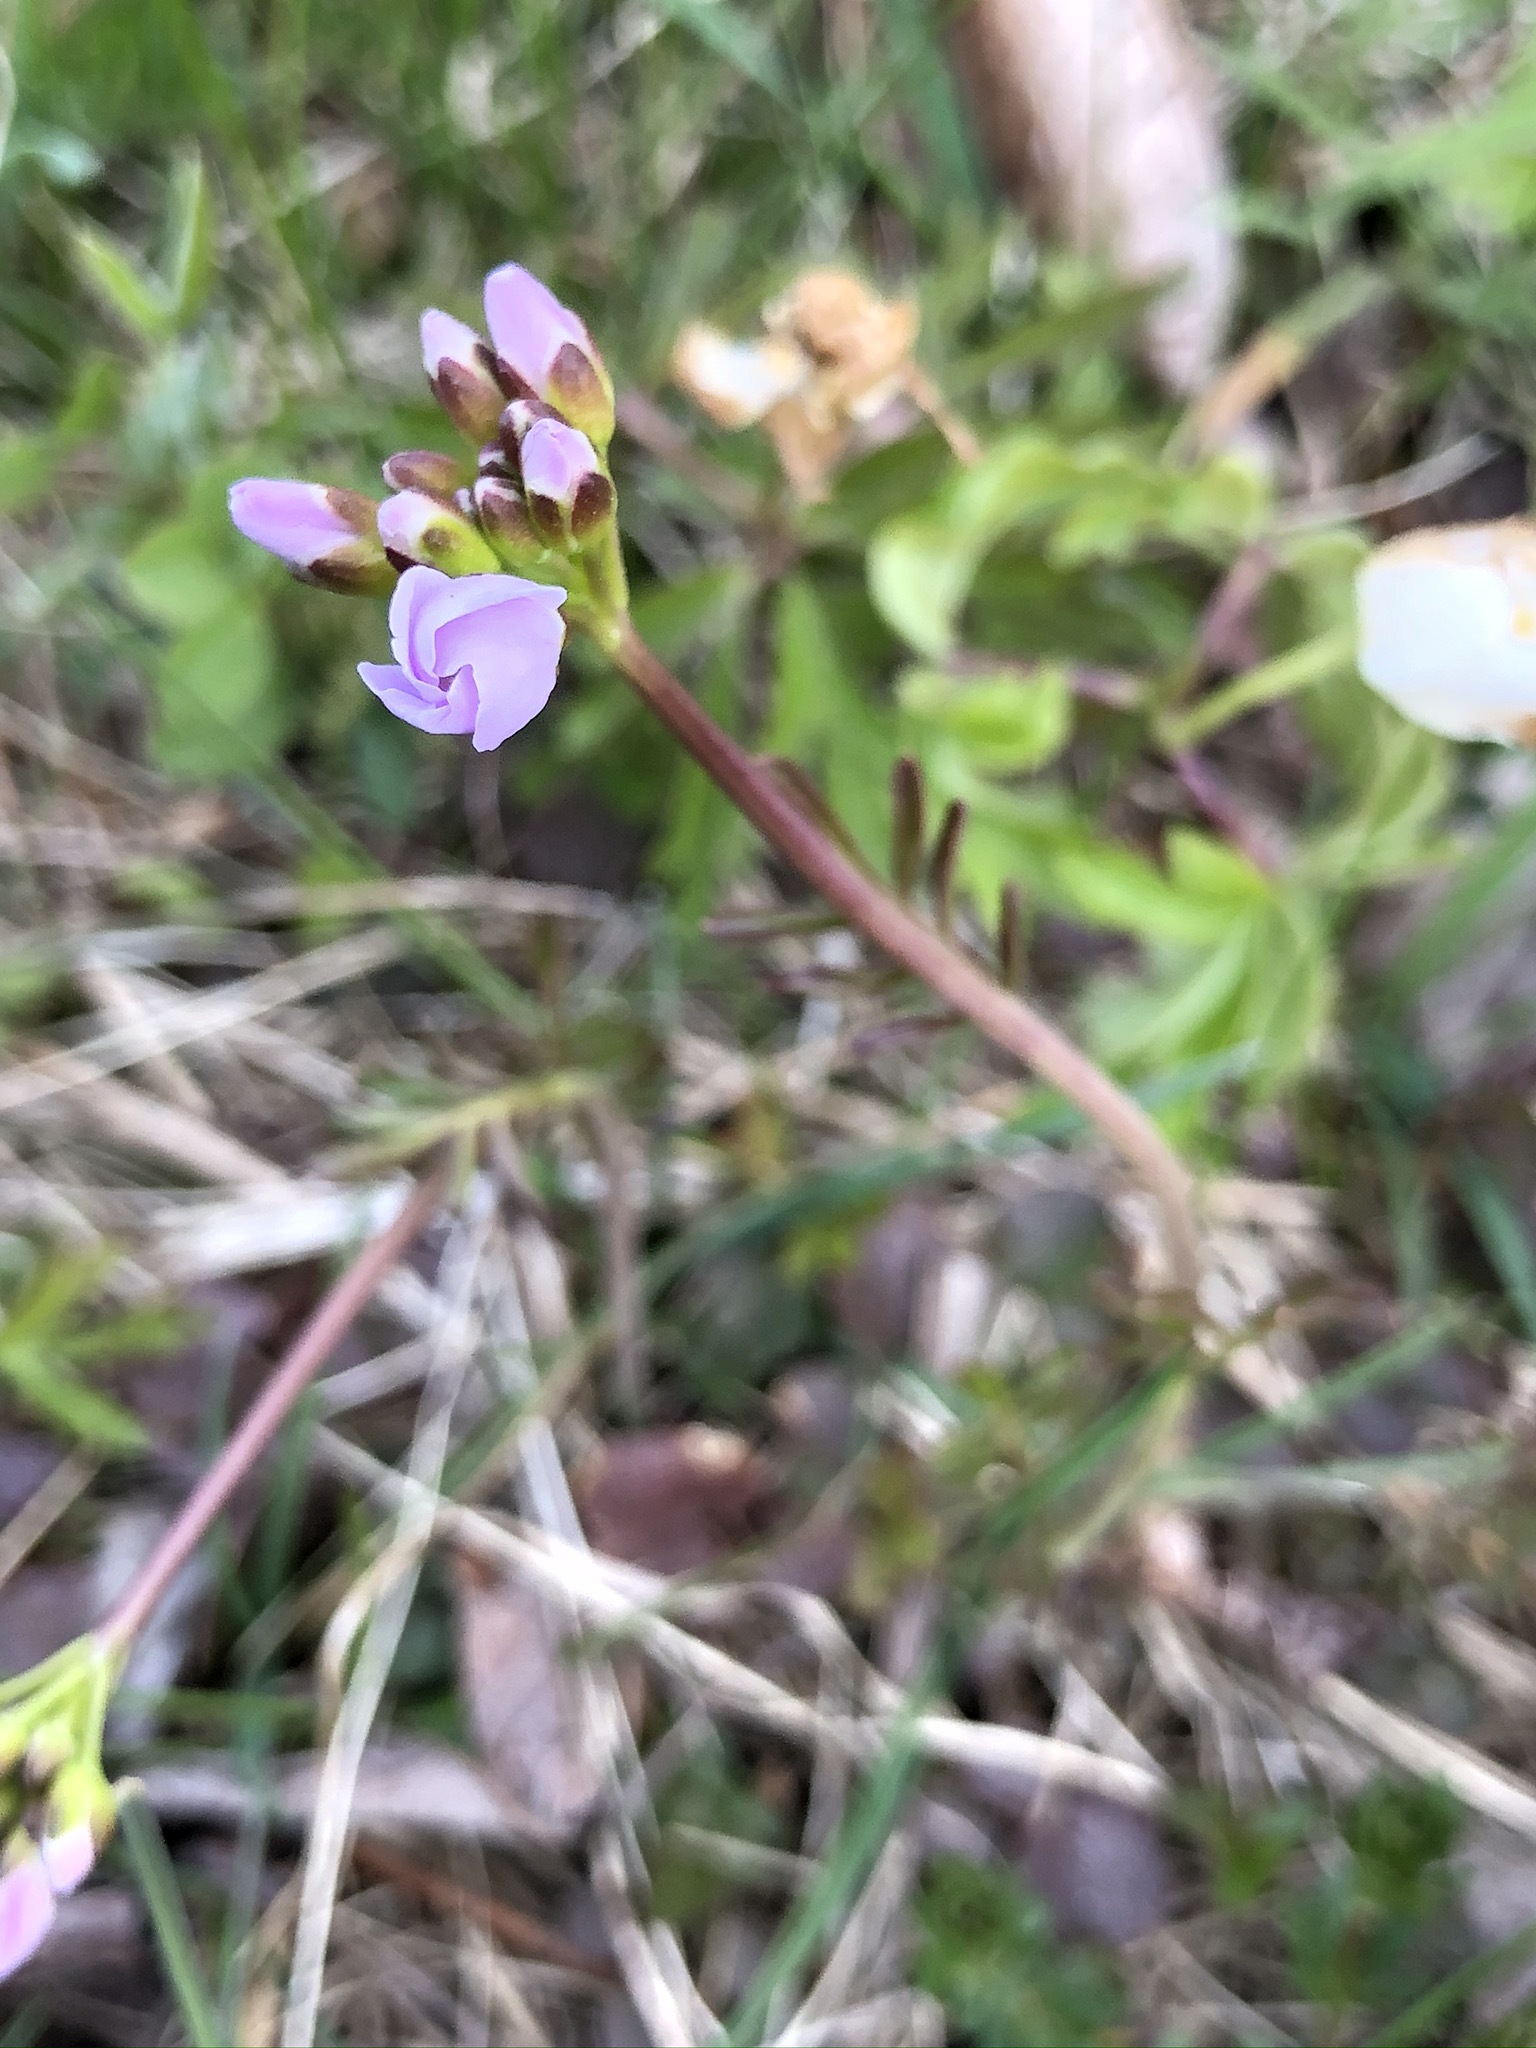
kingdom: Plantae
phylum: Tracheophyta
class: Magnoliopsida
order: Brassicales
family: Brassicaceae
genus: Cardamine
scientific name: Cardamine pratensis
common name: Cuckoo flower
